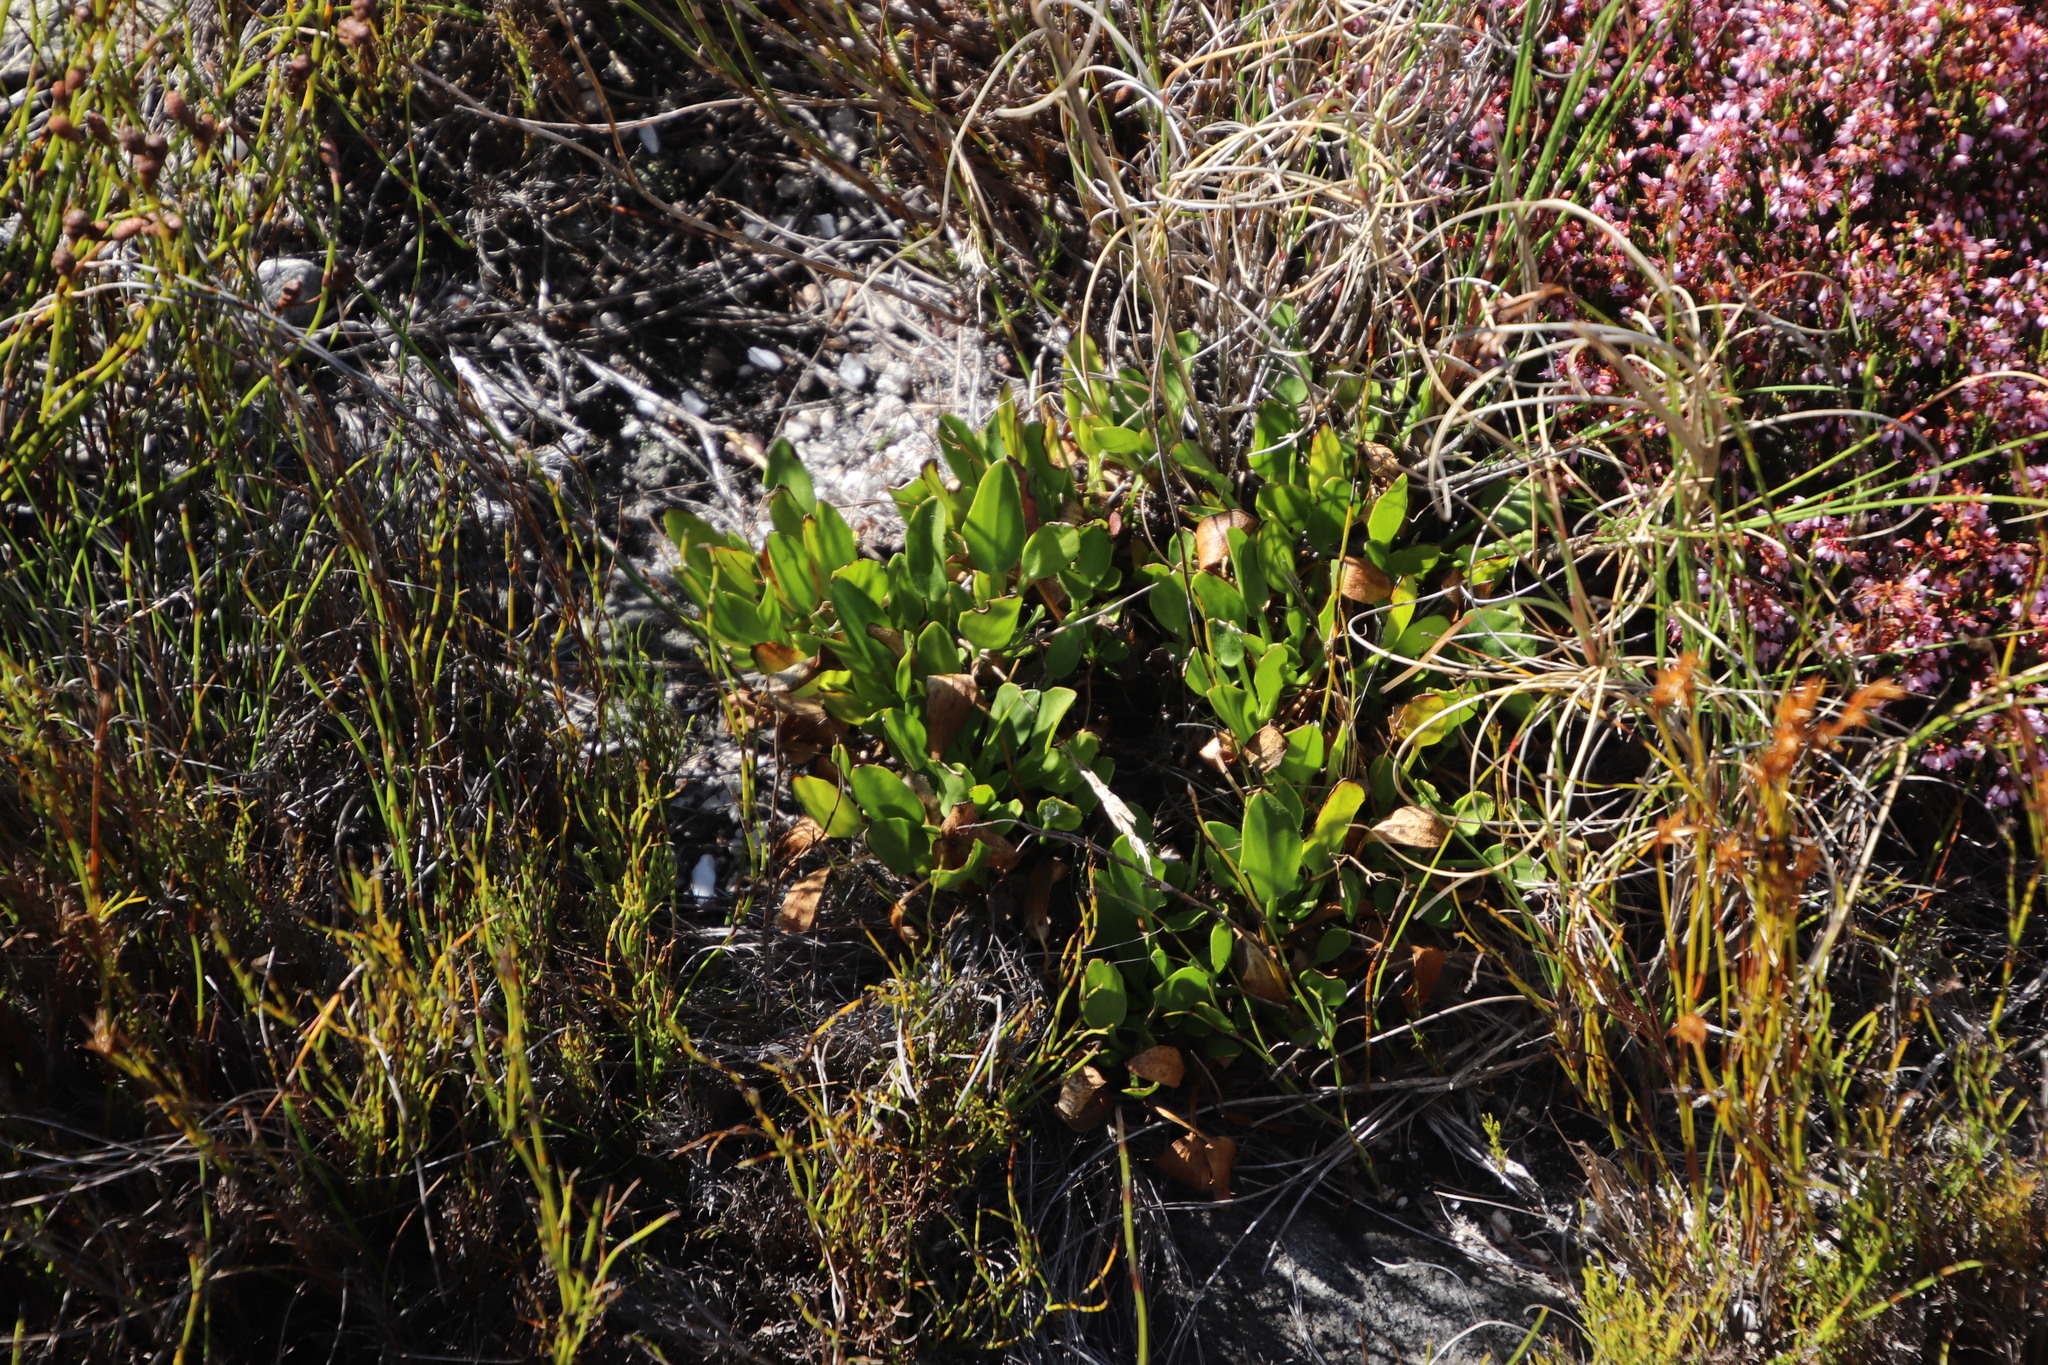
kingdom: Plantae
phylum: Tracheophyta
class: Magnoliopsida
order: Asterales
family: Menyanthaceae
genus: Villarsia
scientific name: Villarsia manningiana
